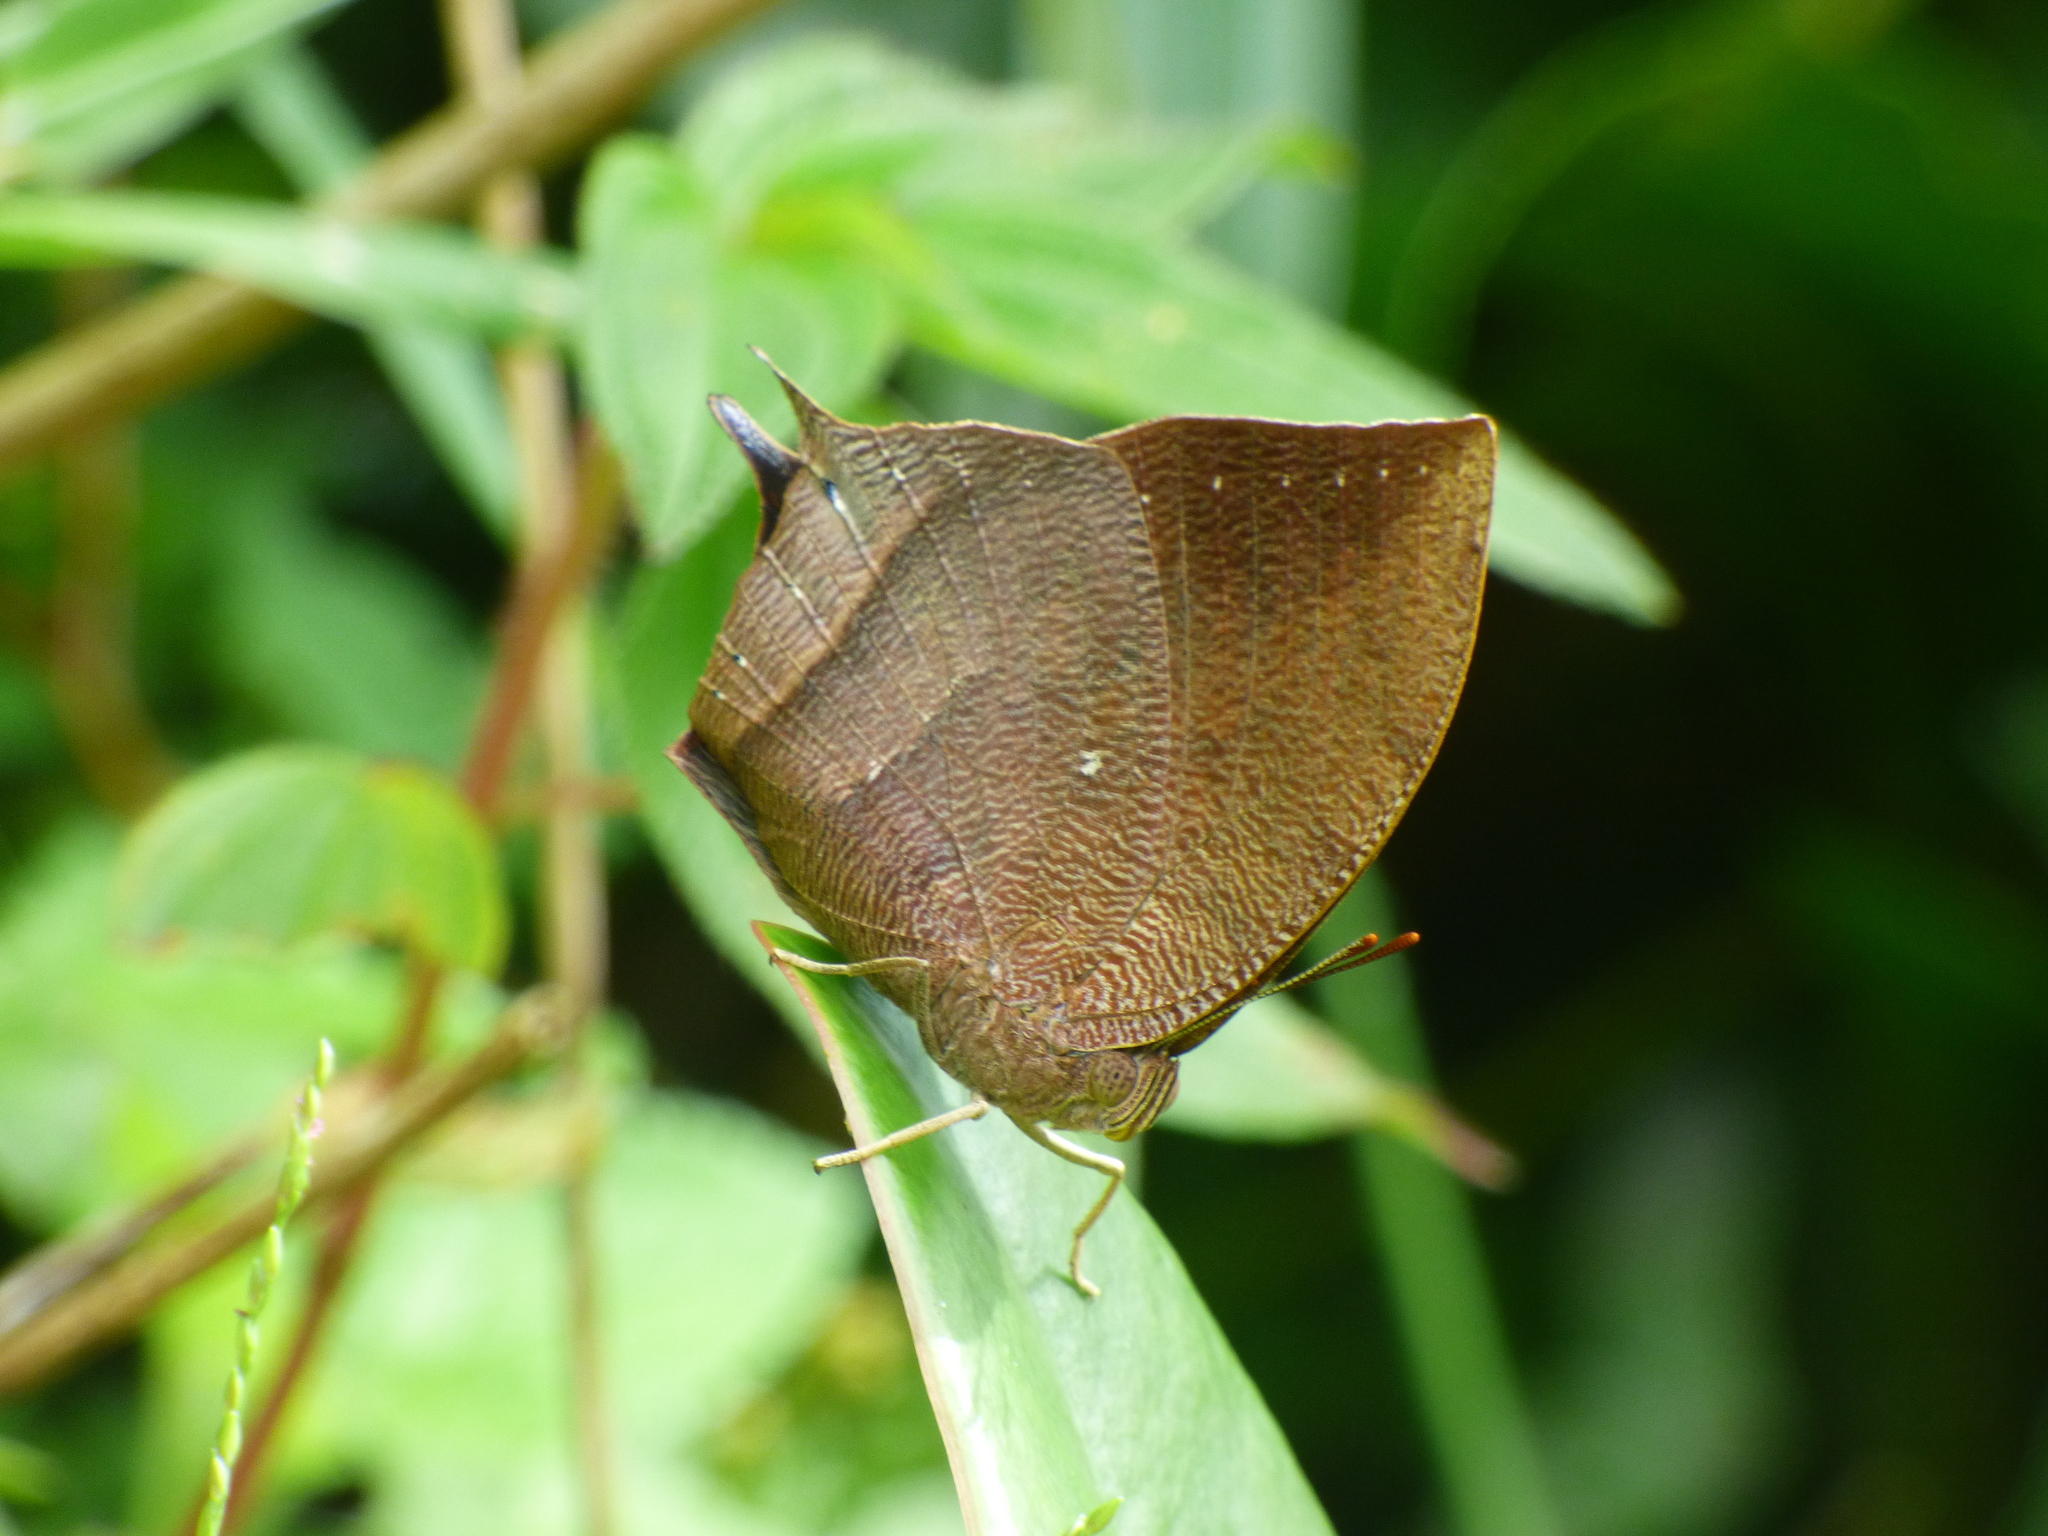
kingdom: Animalia
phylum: Arthropoda
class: Insecta
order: Lepidoptera
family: Nymphalidae
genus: Fountainea
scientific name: Fountainea
